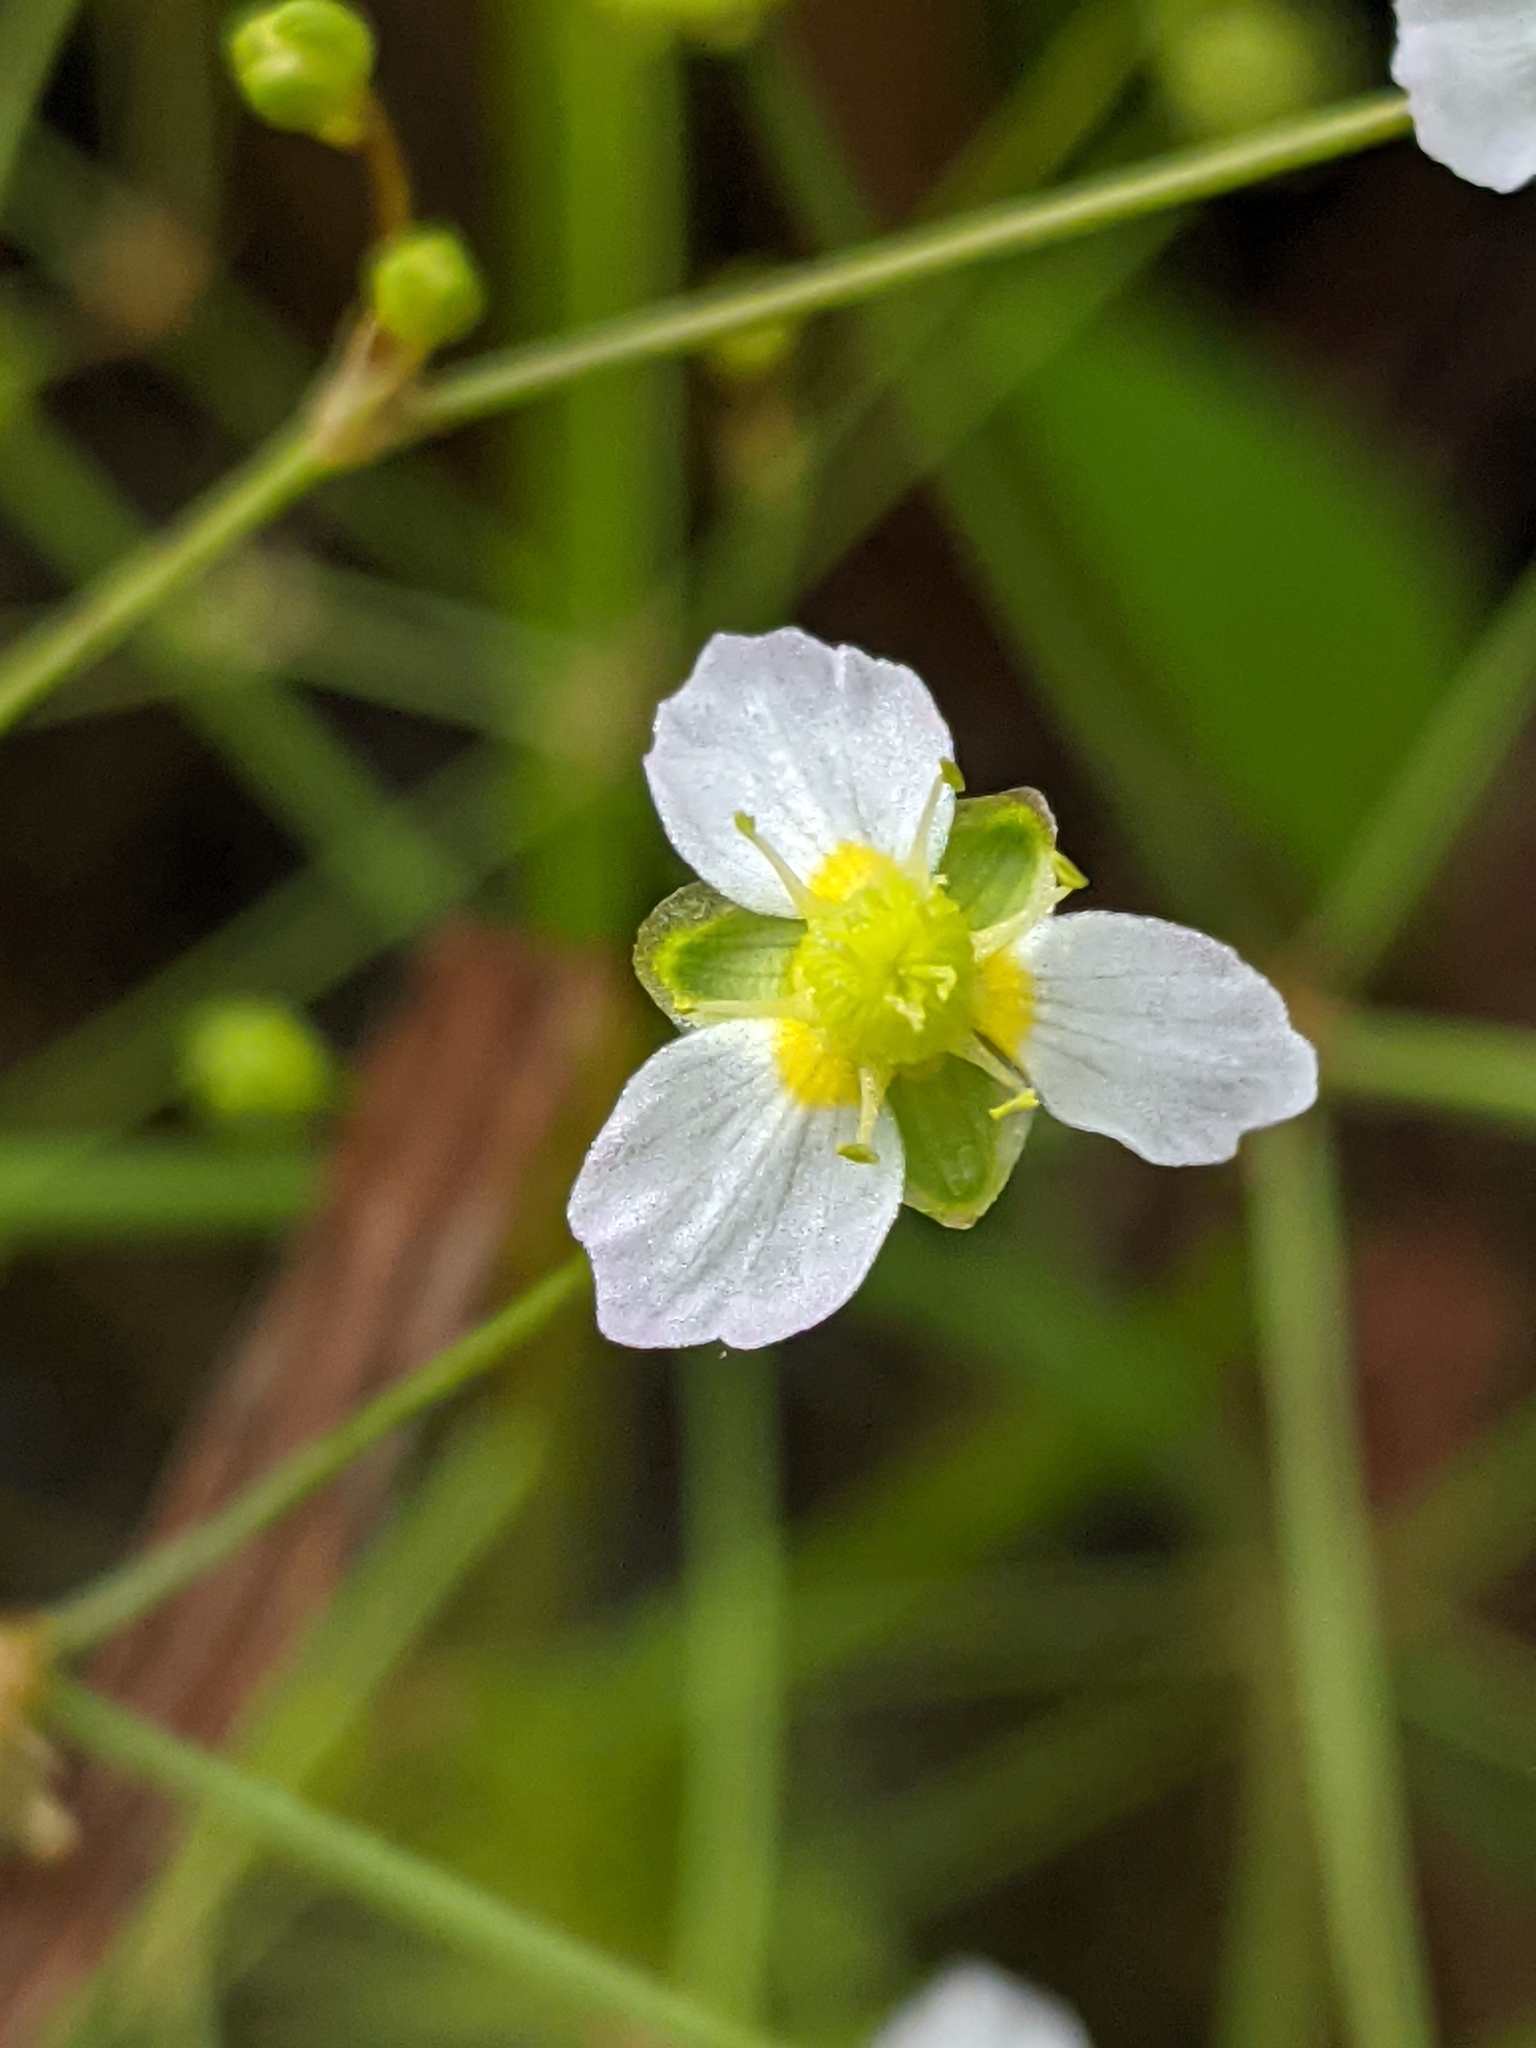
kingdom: Plantae
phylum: Tracheophyta
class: Liliopsida
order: Alismatales
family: Alismataceae
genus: Alisma
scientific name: Alisma triviale
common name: Northern water-plantain
